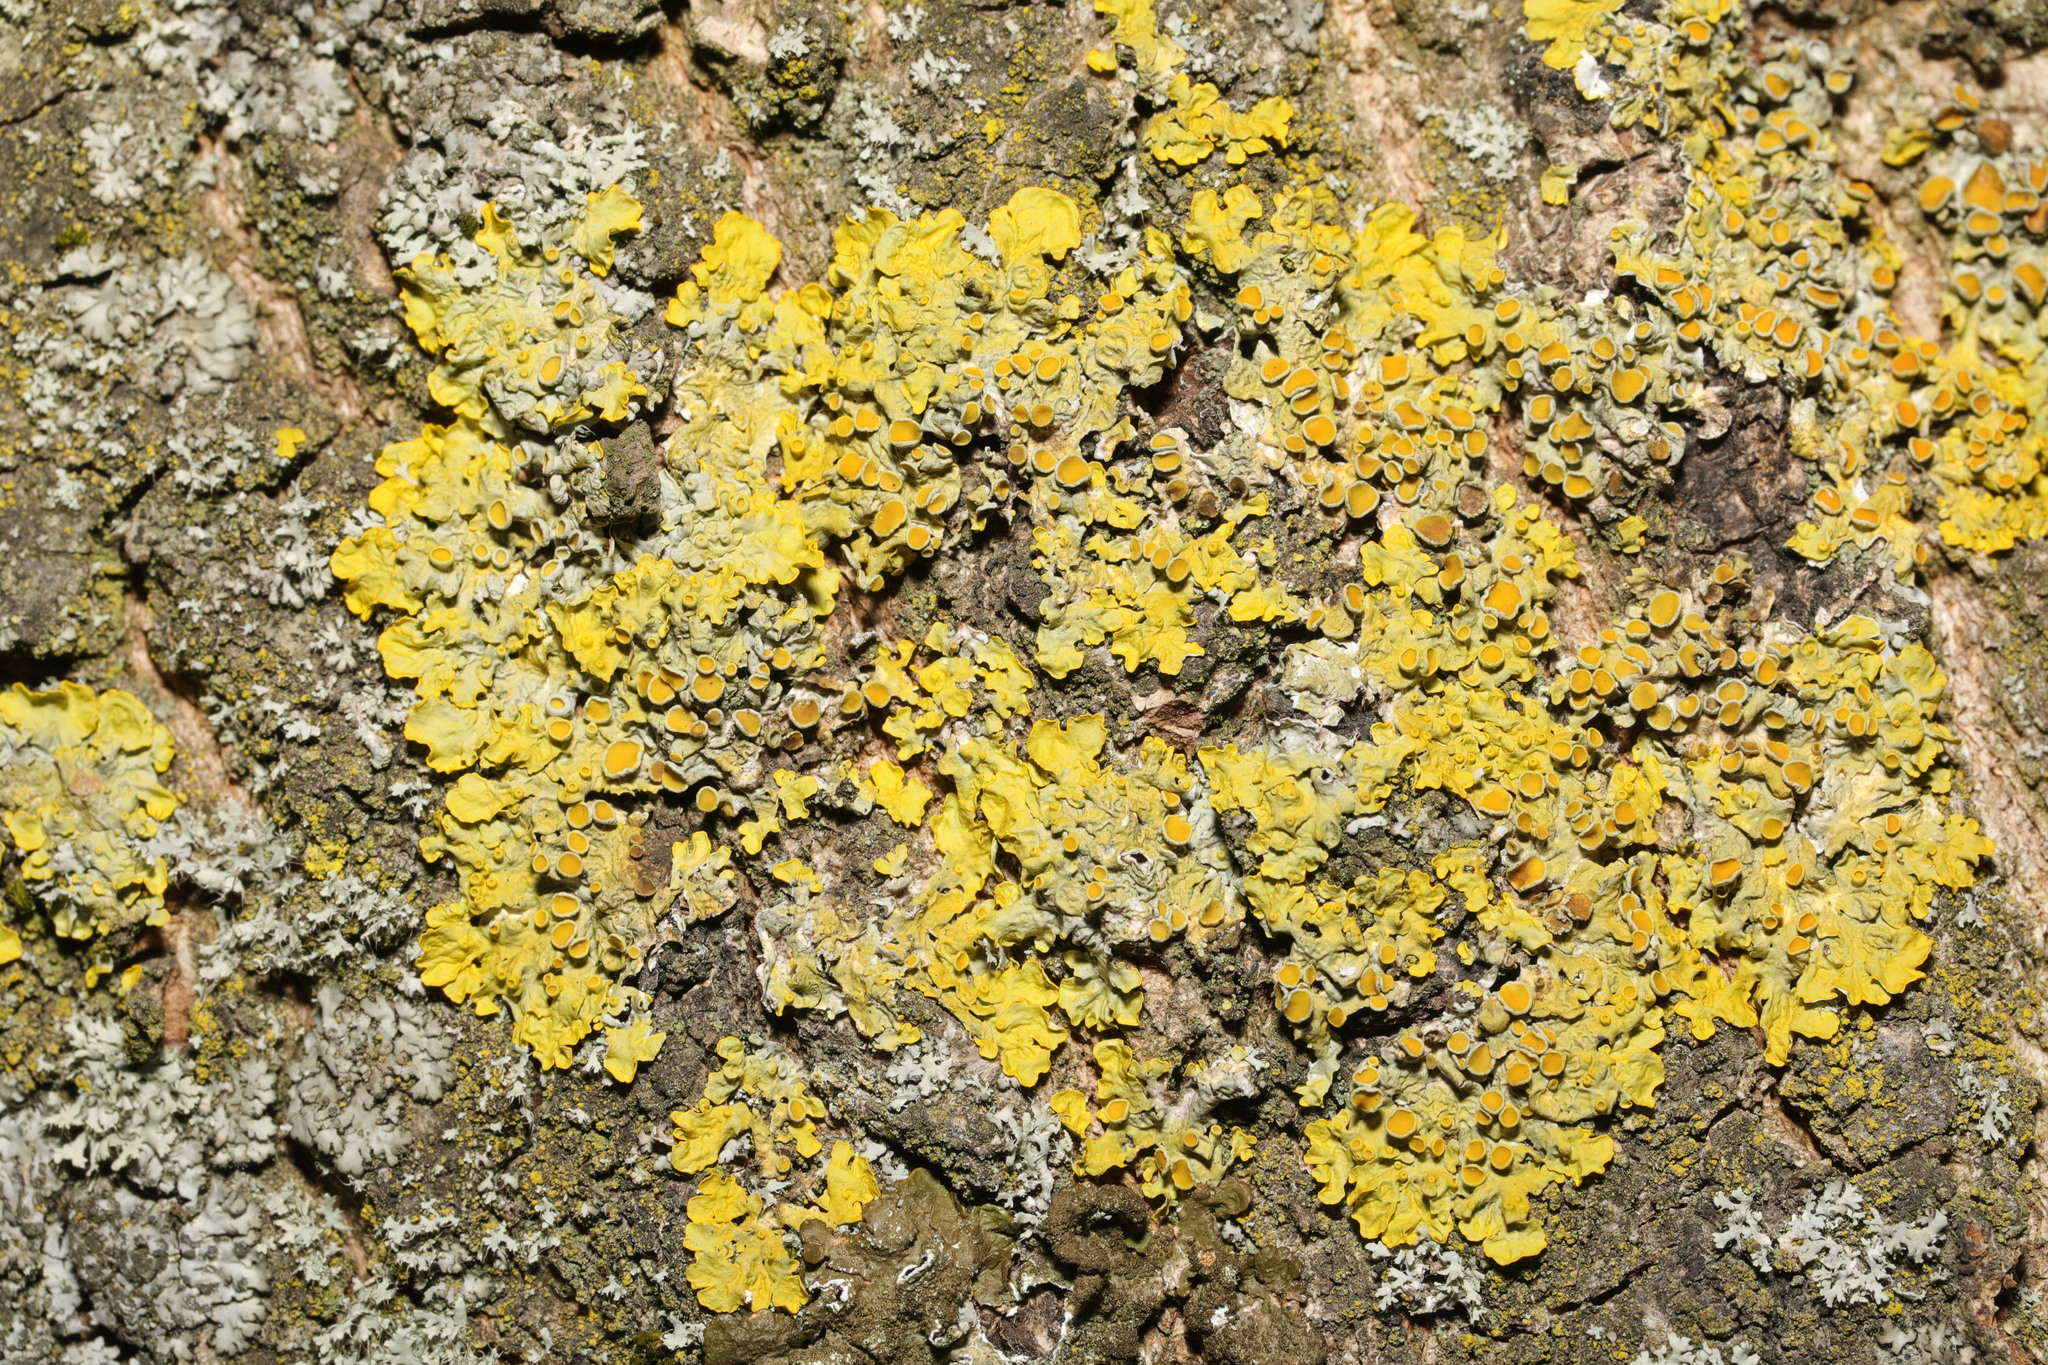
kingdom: Fungi
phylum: Ascomycota
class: Lecanoromycetes
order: Teloschistales
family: Teloschistaceae
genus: Xanthoria
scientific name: Xanthoria parietina
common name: Common orange lichen
